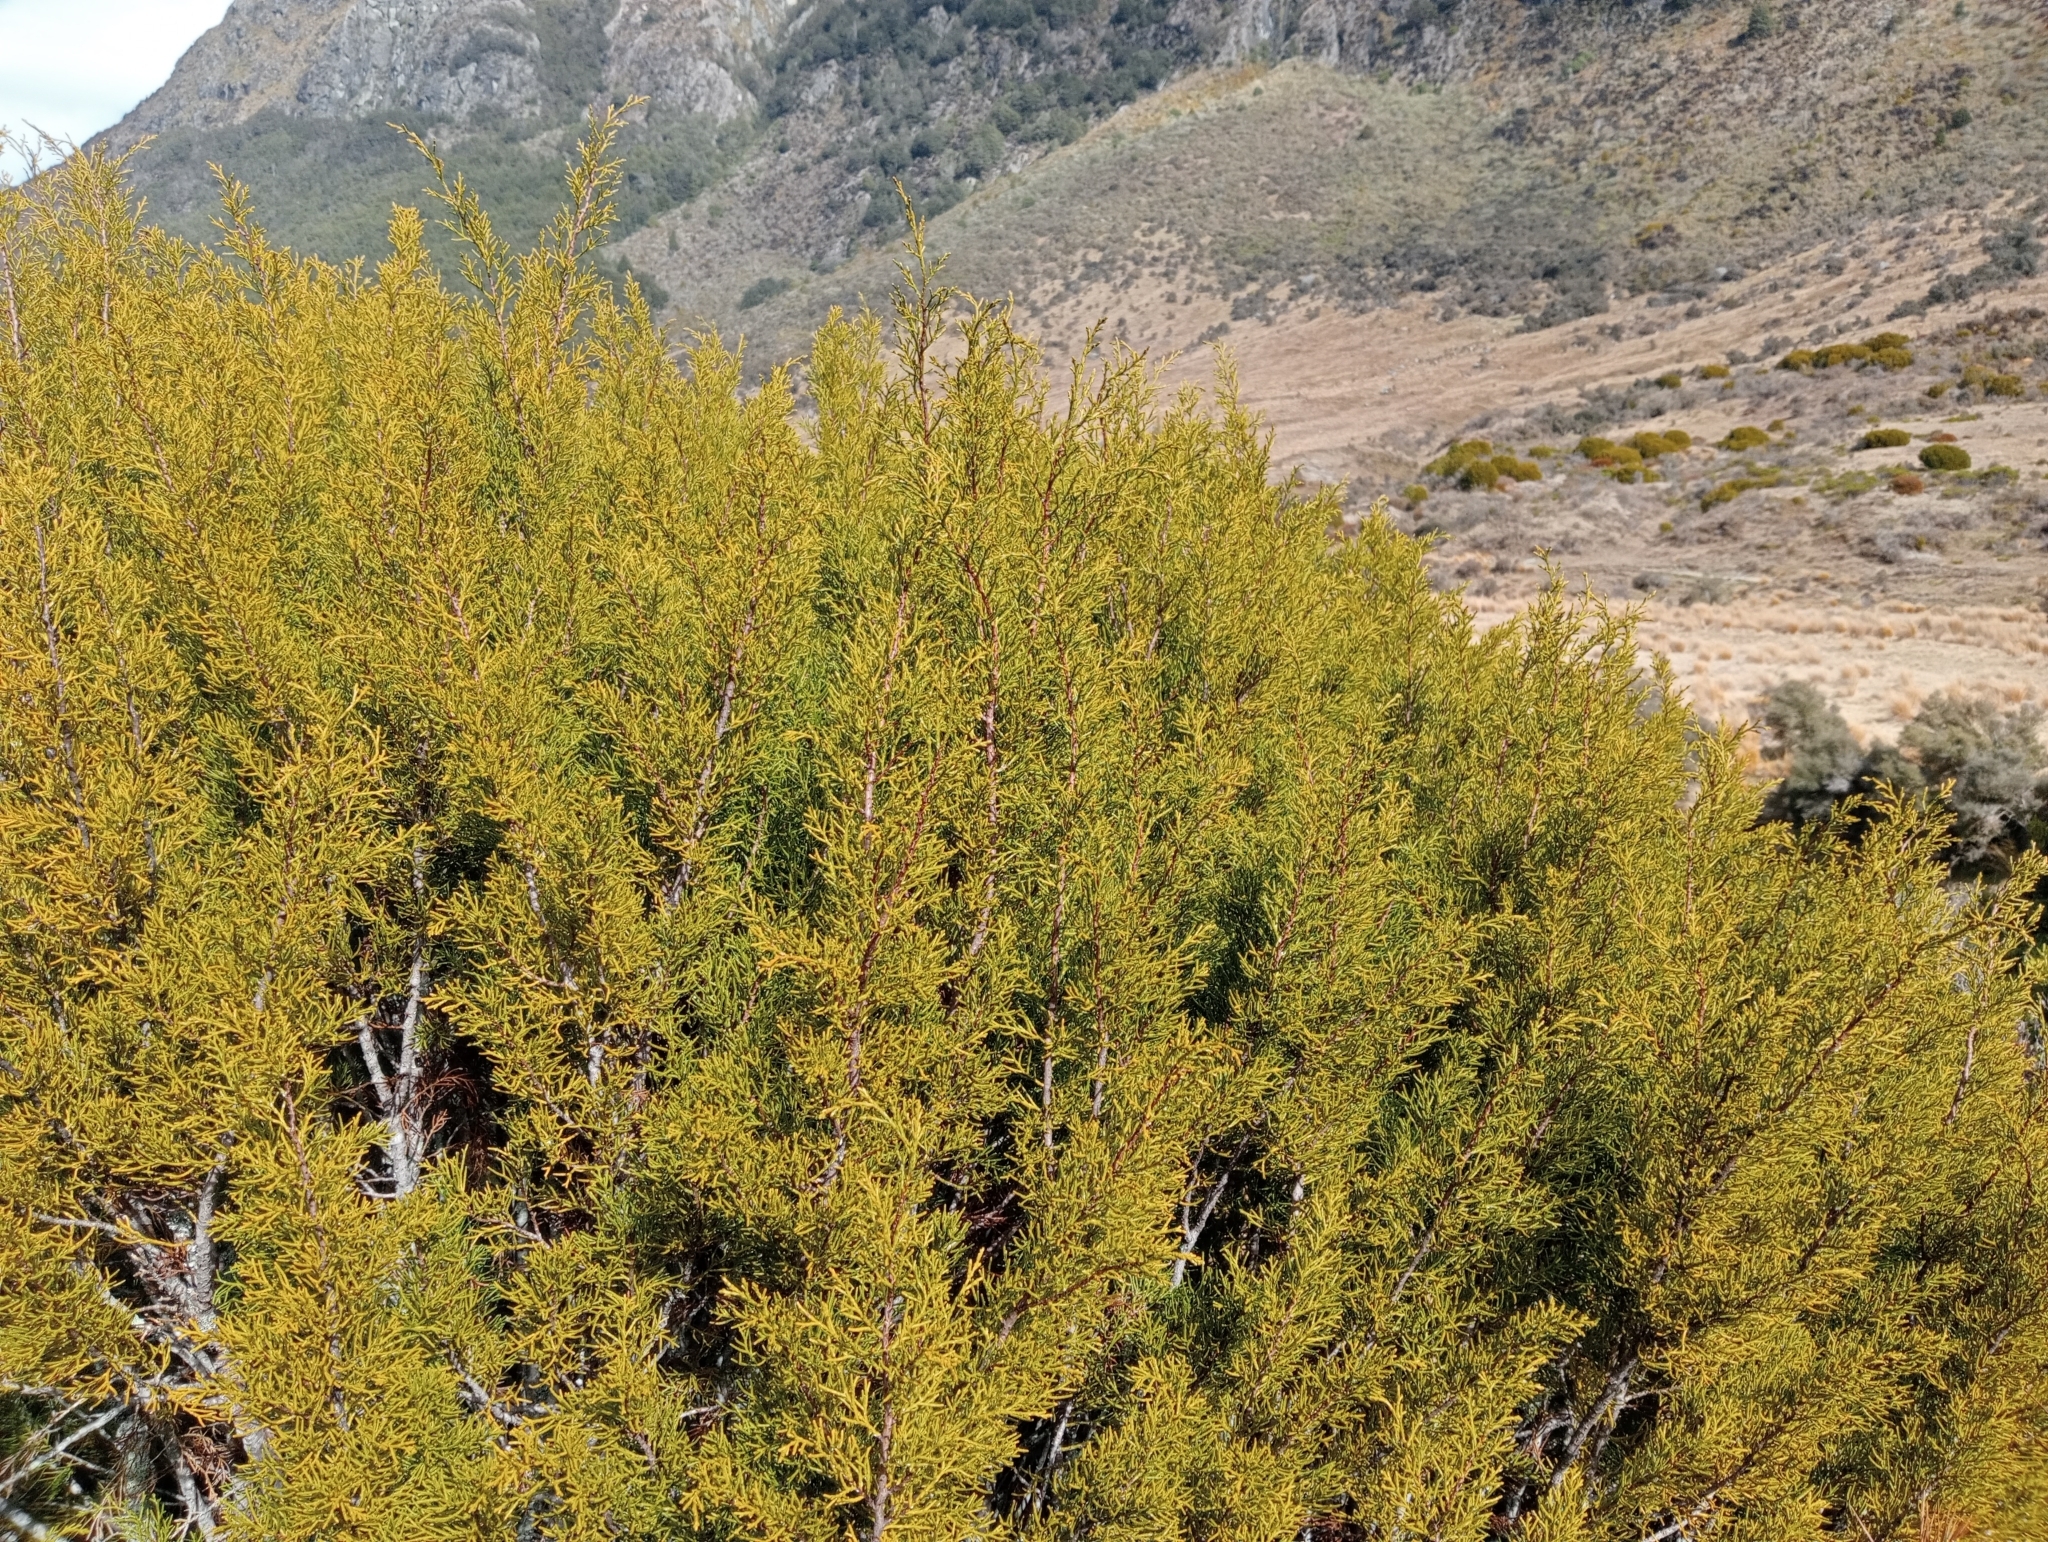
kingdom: Plantae
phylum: Tracheophyta
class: Pinopsida
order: Pinales
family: Podocarpaceae
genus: Halocarpus
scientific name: Halocarpus bidwillii
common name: Bog pine
